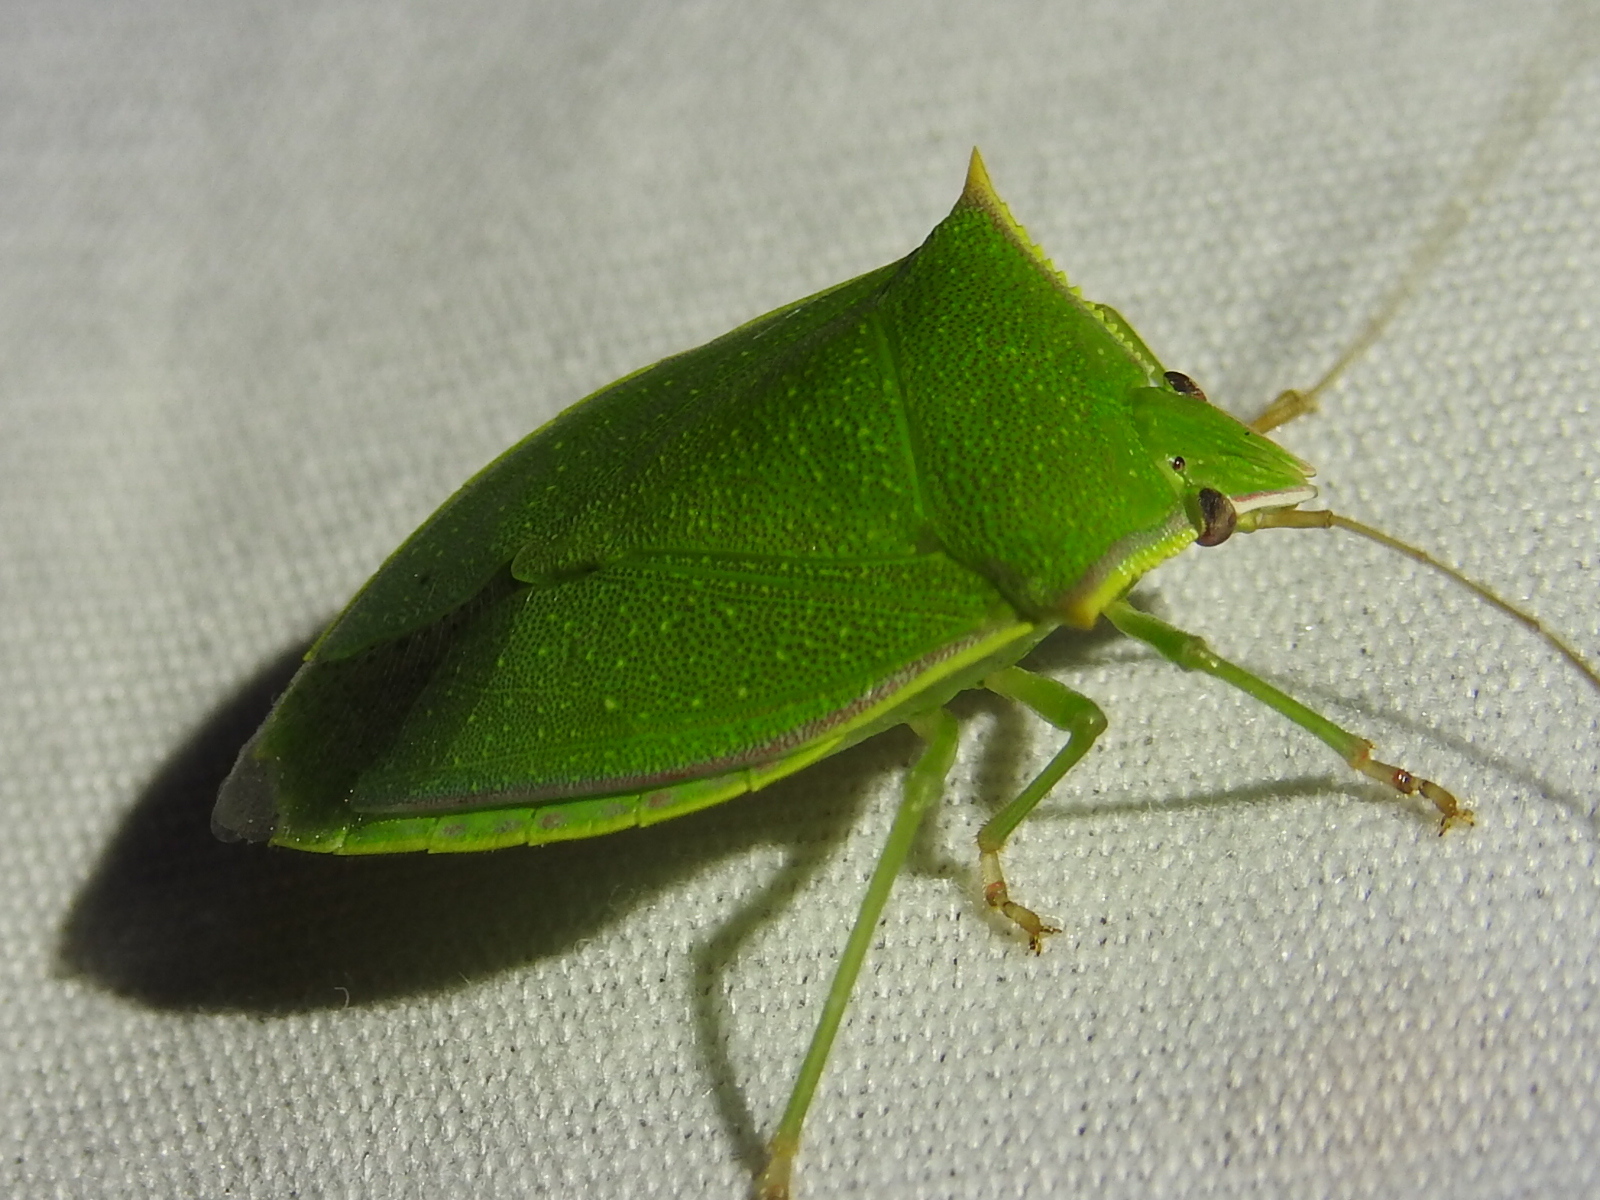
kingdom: Animalia
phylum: Arthropoda
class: Insecta
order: Hemiptera
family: Pentatomidae
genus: Loxa
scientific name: Loxa flavicollis
